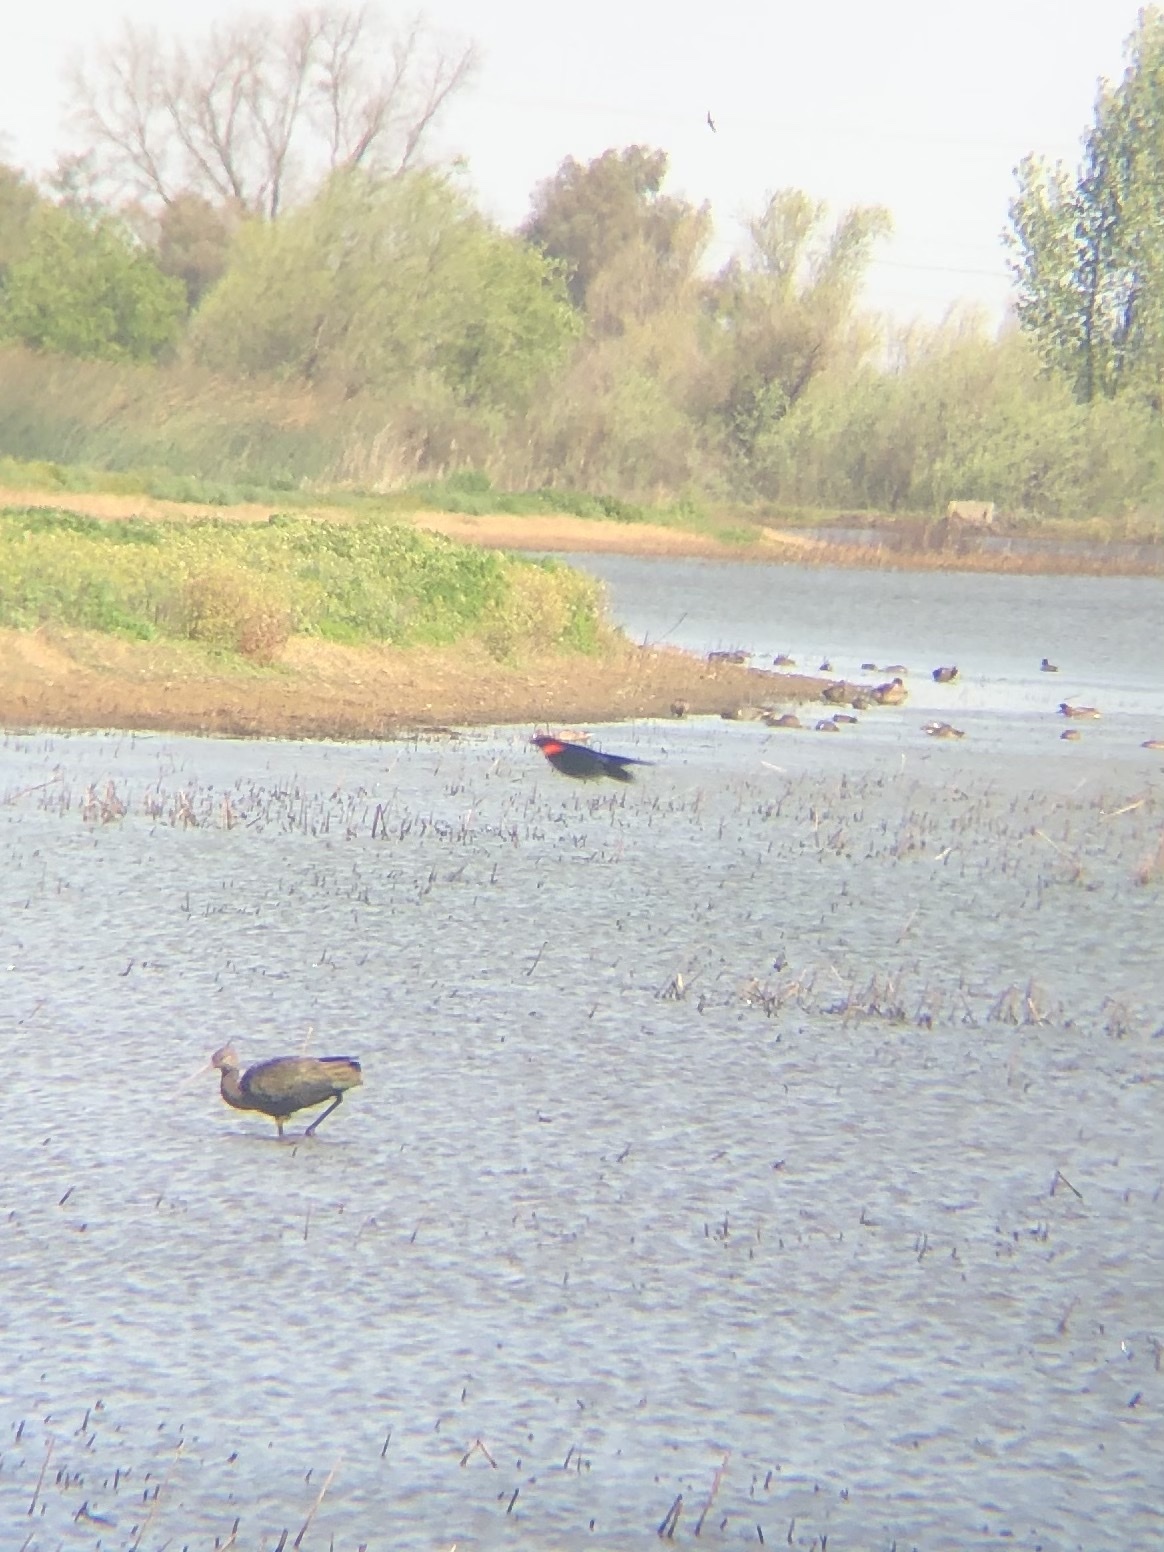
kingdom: Animalia
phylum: Chordata
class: Aves
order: Passeriformes
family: Icteridae
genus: Agelaius
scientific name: Agelaius phoeniceus
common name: Red-winged blackbird
